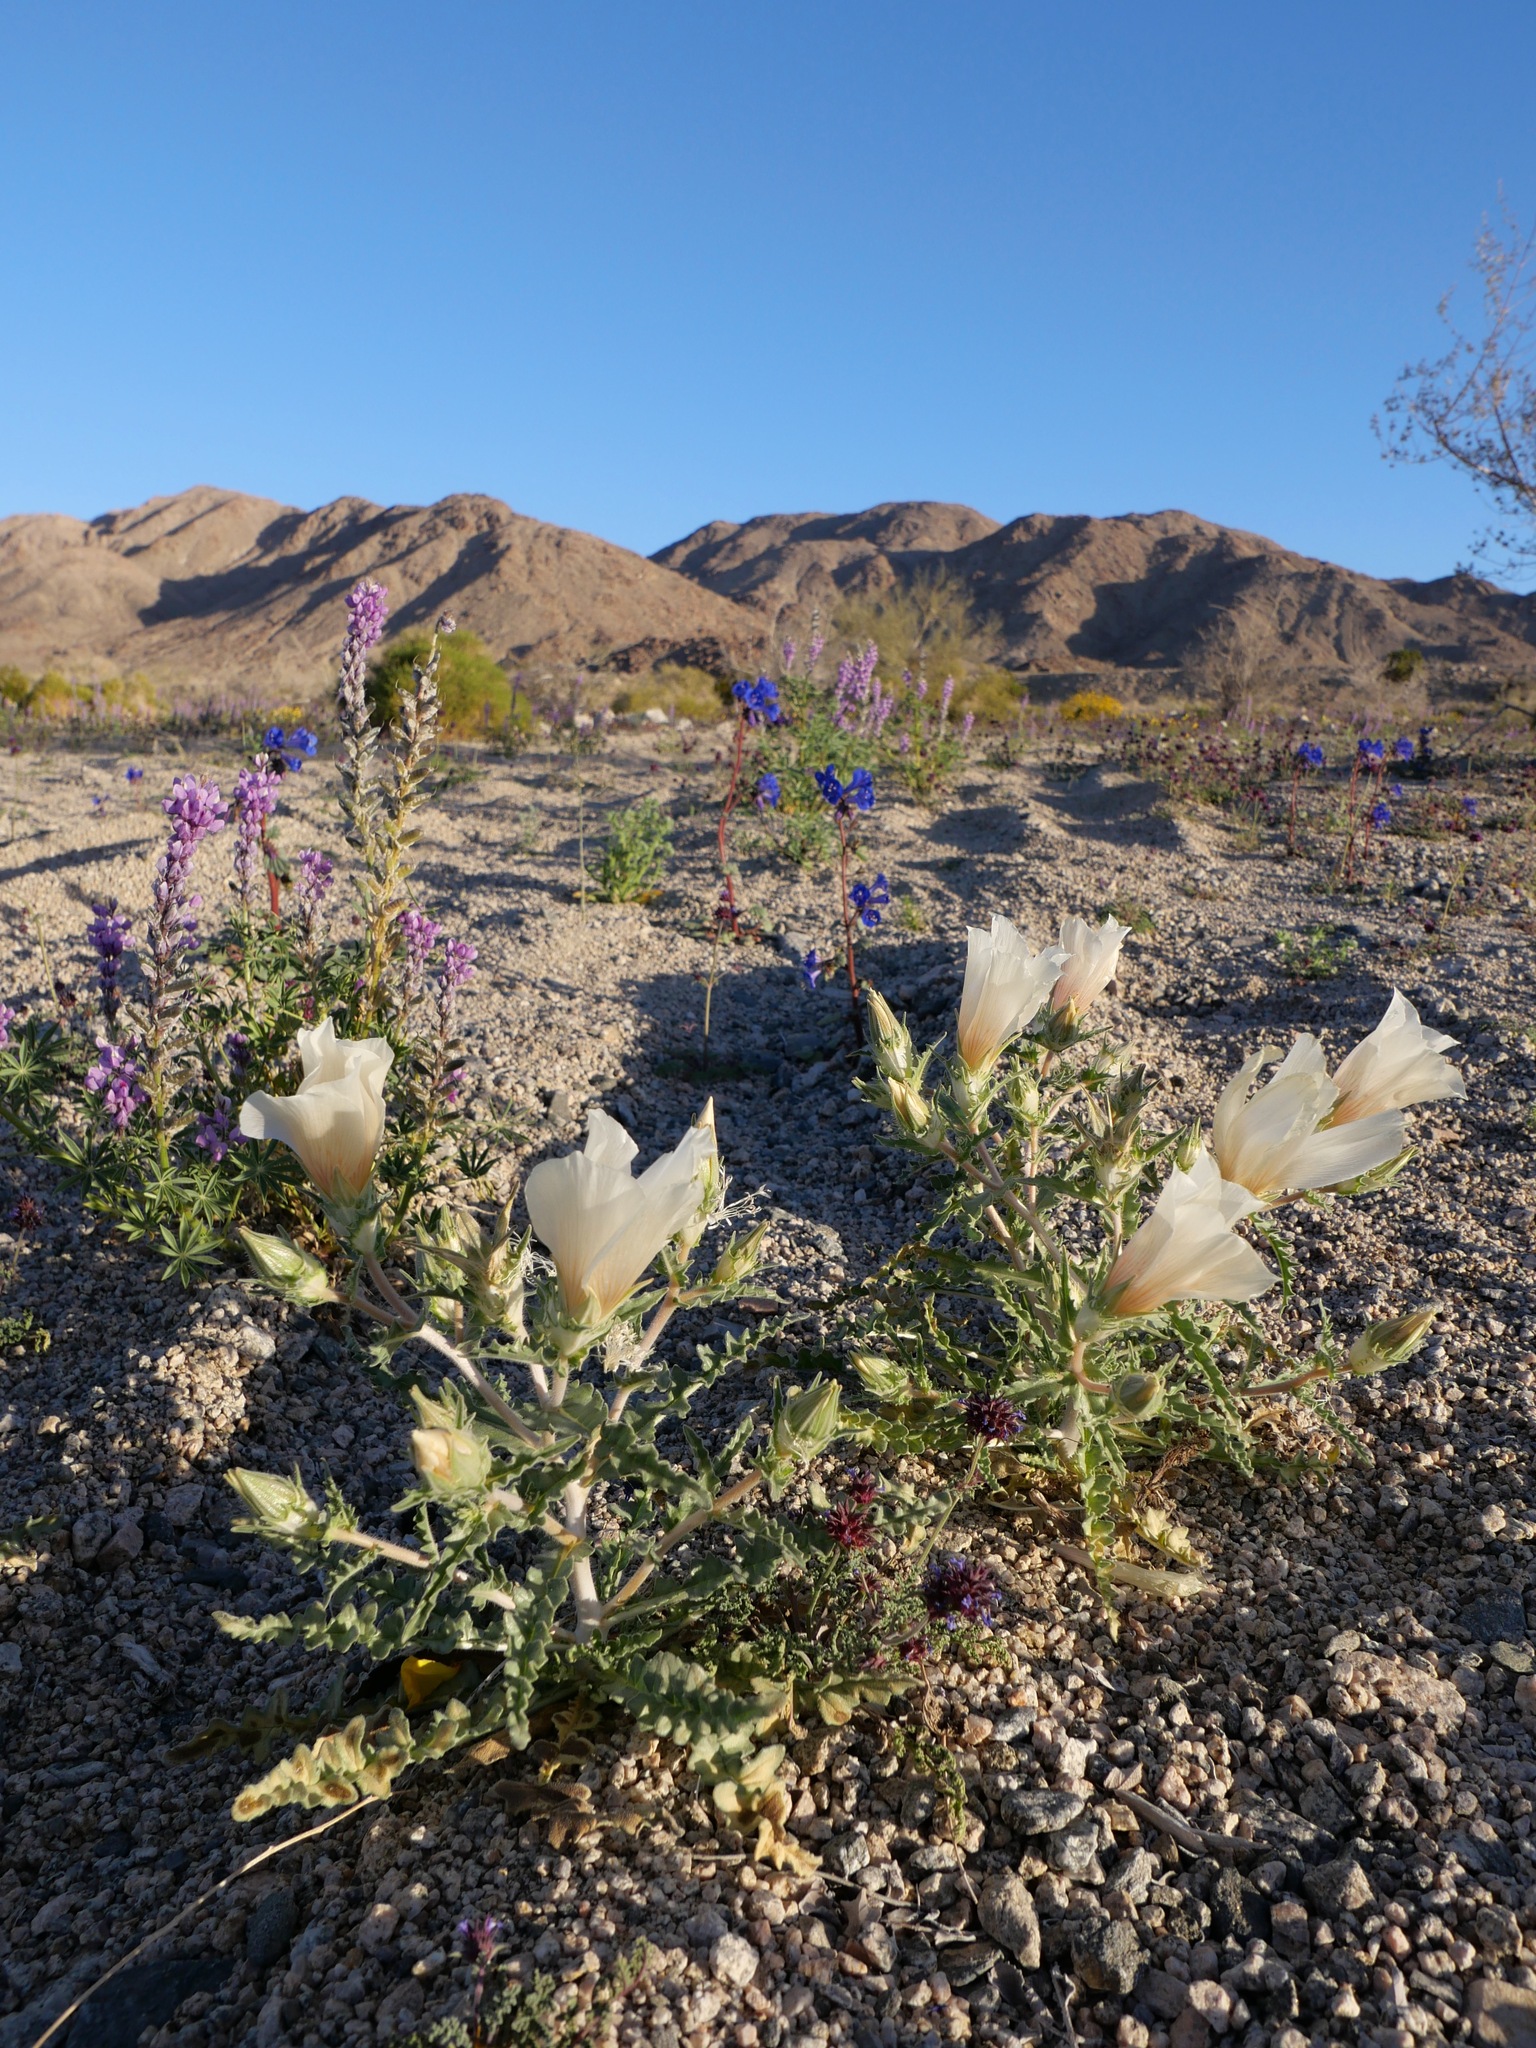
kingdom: Plantae
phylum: Tracheophyta
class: Magnoliopsida
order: Cornales
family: Loasaceae
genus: Mentzelia
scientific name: Mentzelia involucrata
